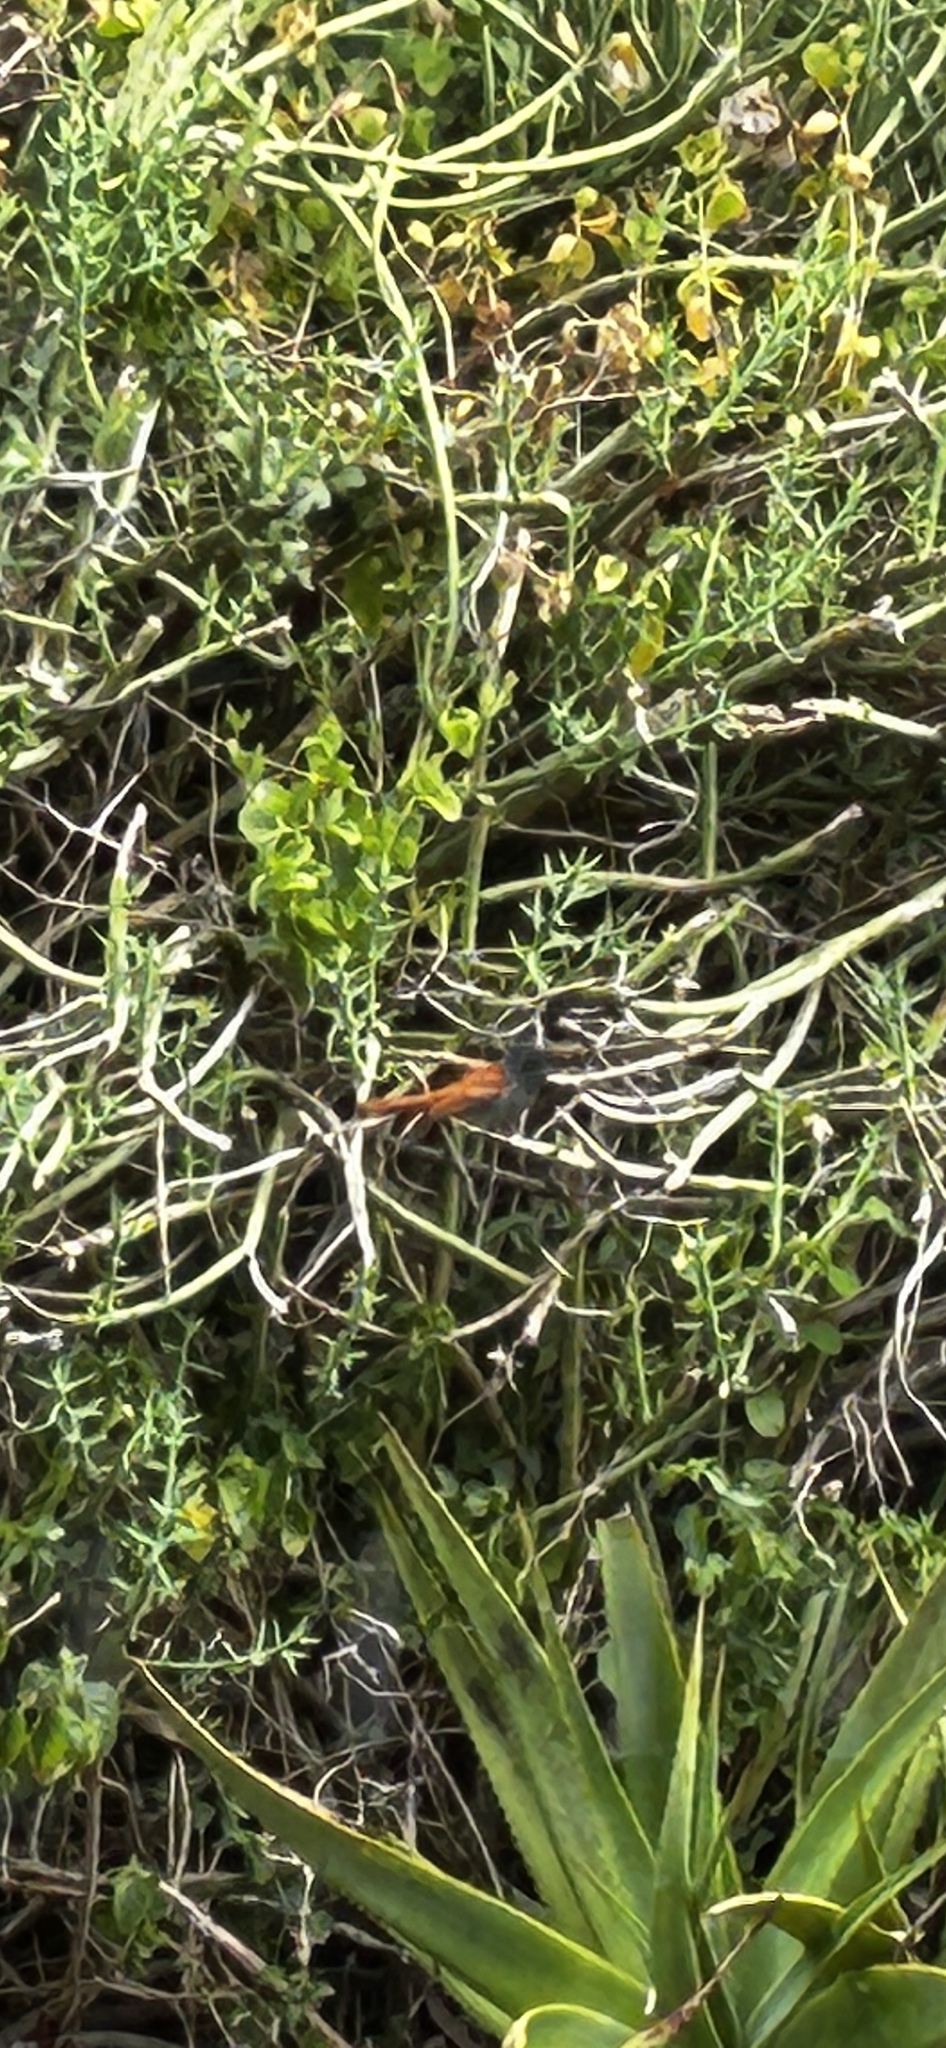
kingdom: Animalia
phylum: Chordata
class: Aves
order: Passeriformes
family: Monarchidae
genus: Terpsiphone
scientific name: Terpsiphone viridis
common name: African paradise flycatcher
